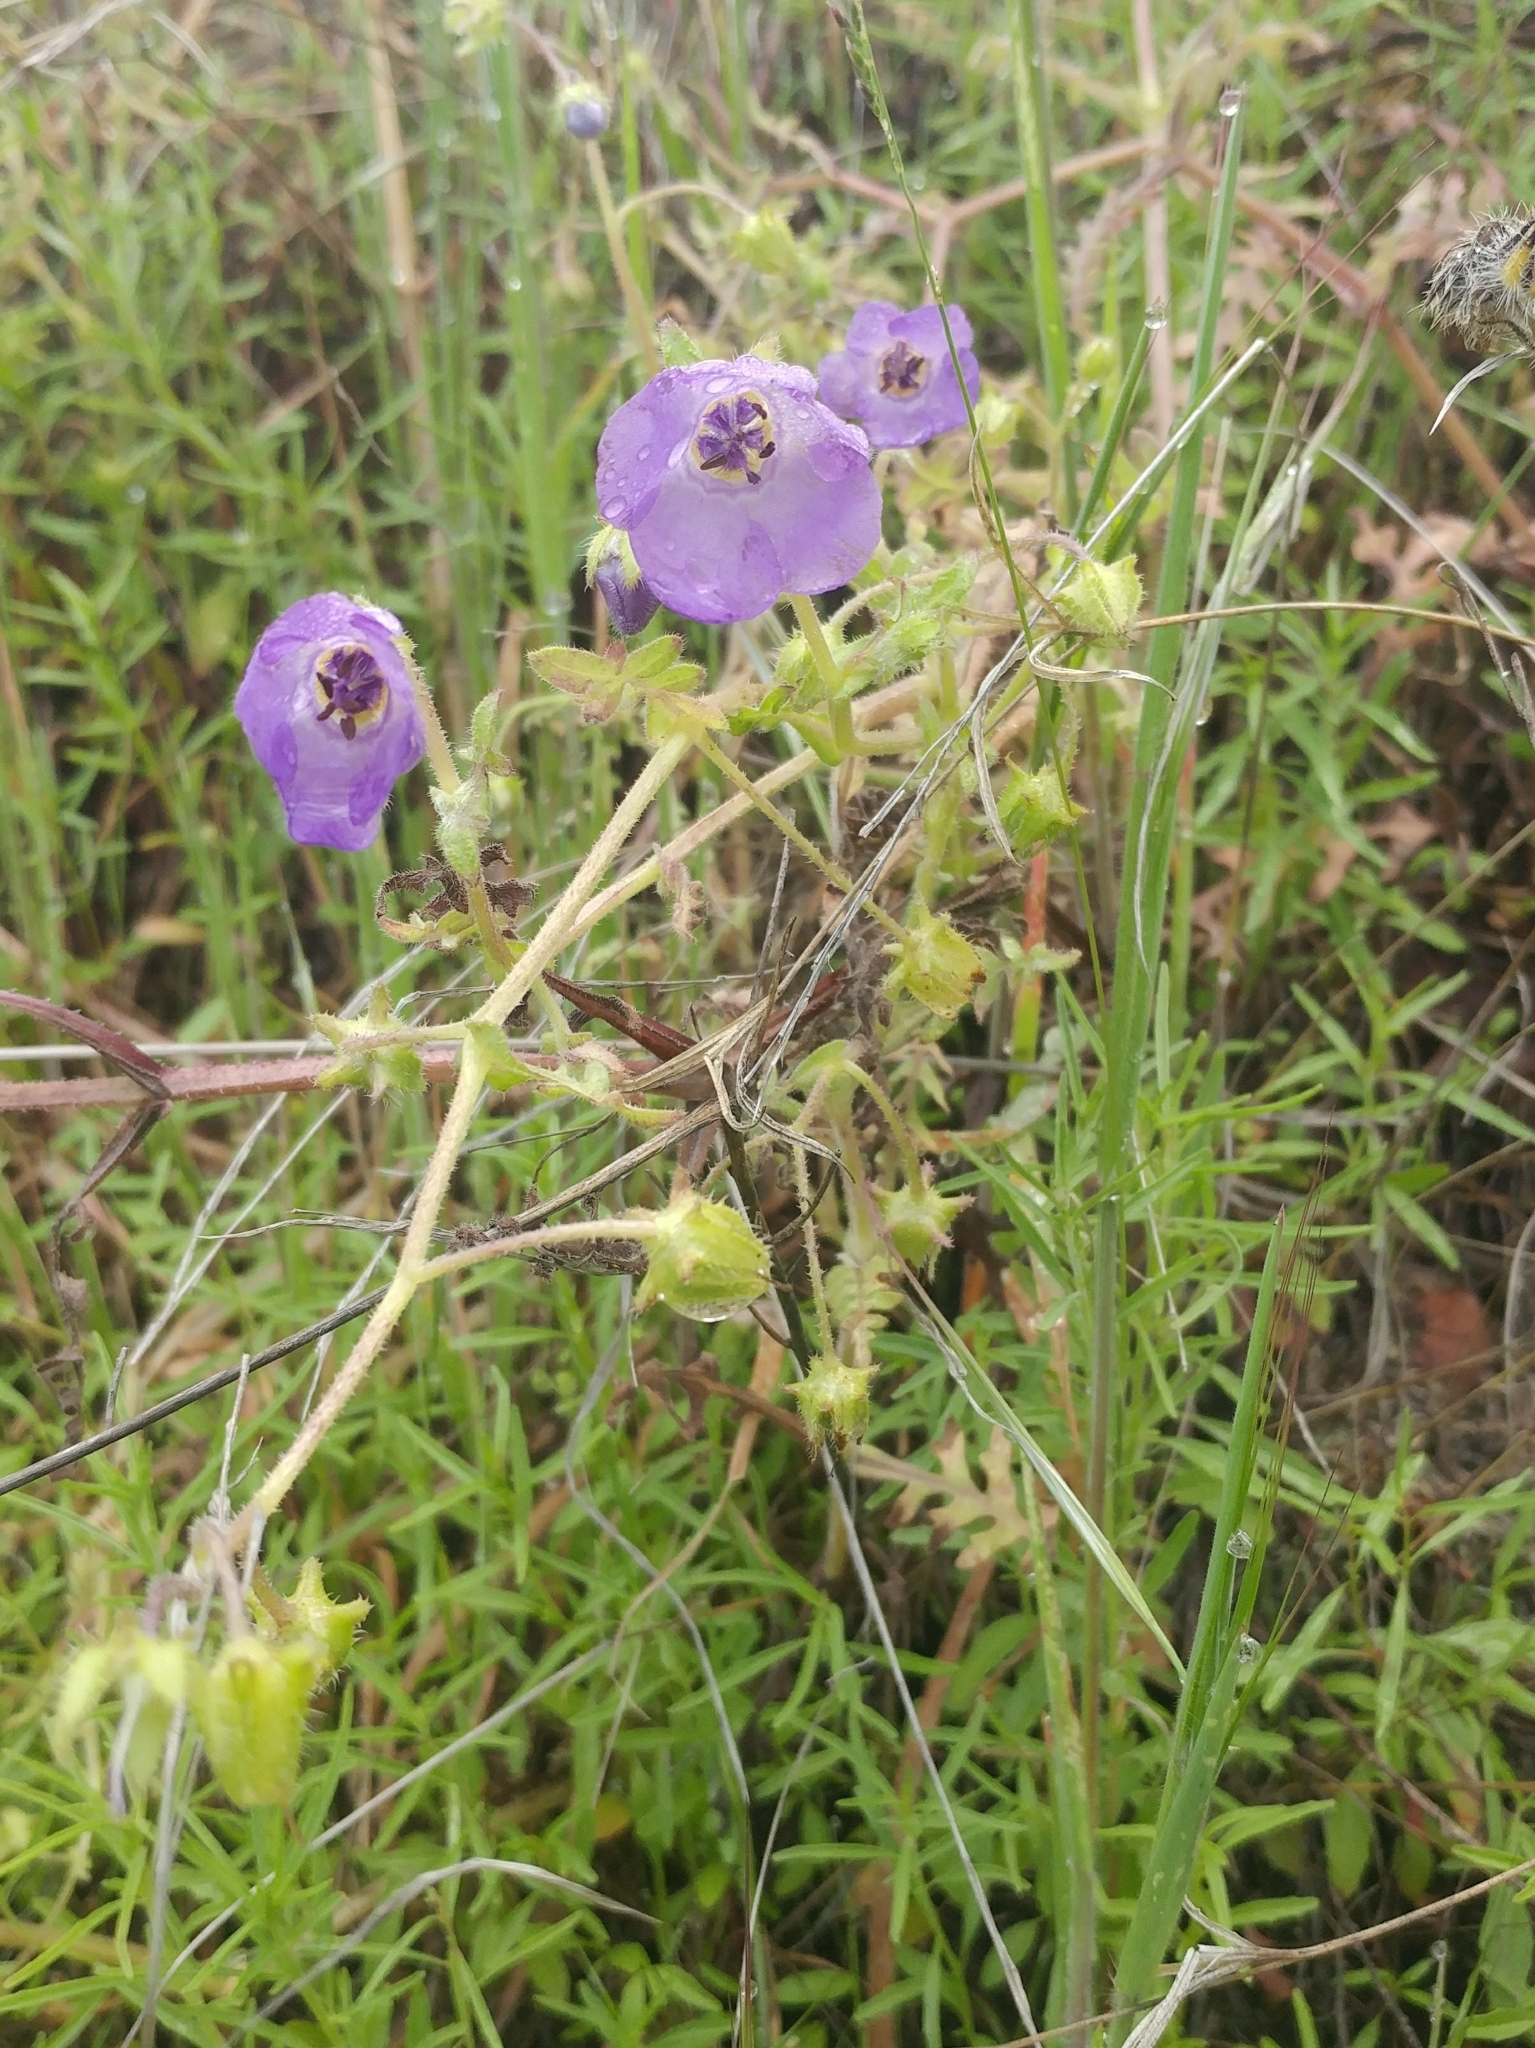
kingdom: Plantae
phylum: Tracheophyta
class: Magnoliopsida
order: Boraginales
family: Hydrophyllaceae
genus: Pholistoma
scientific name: Pholistoma auritum
